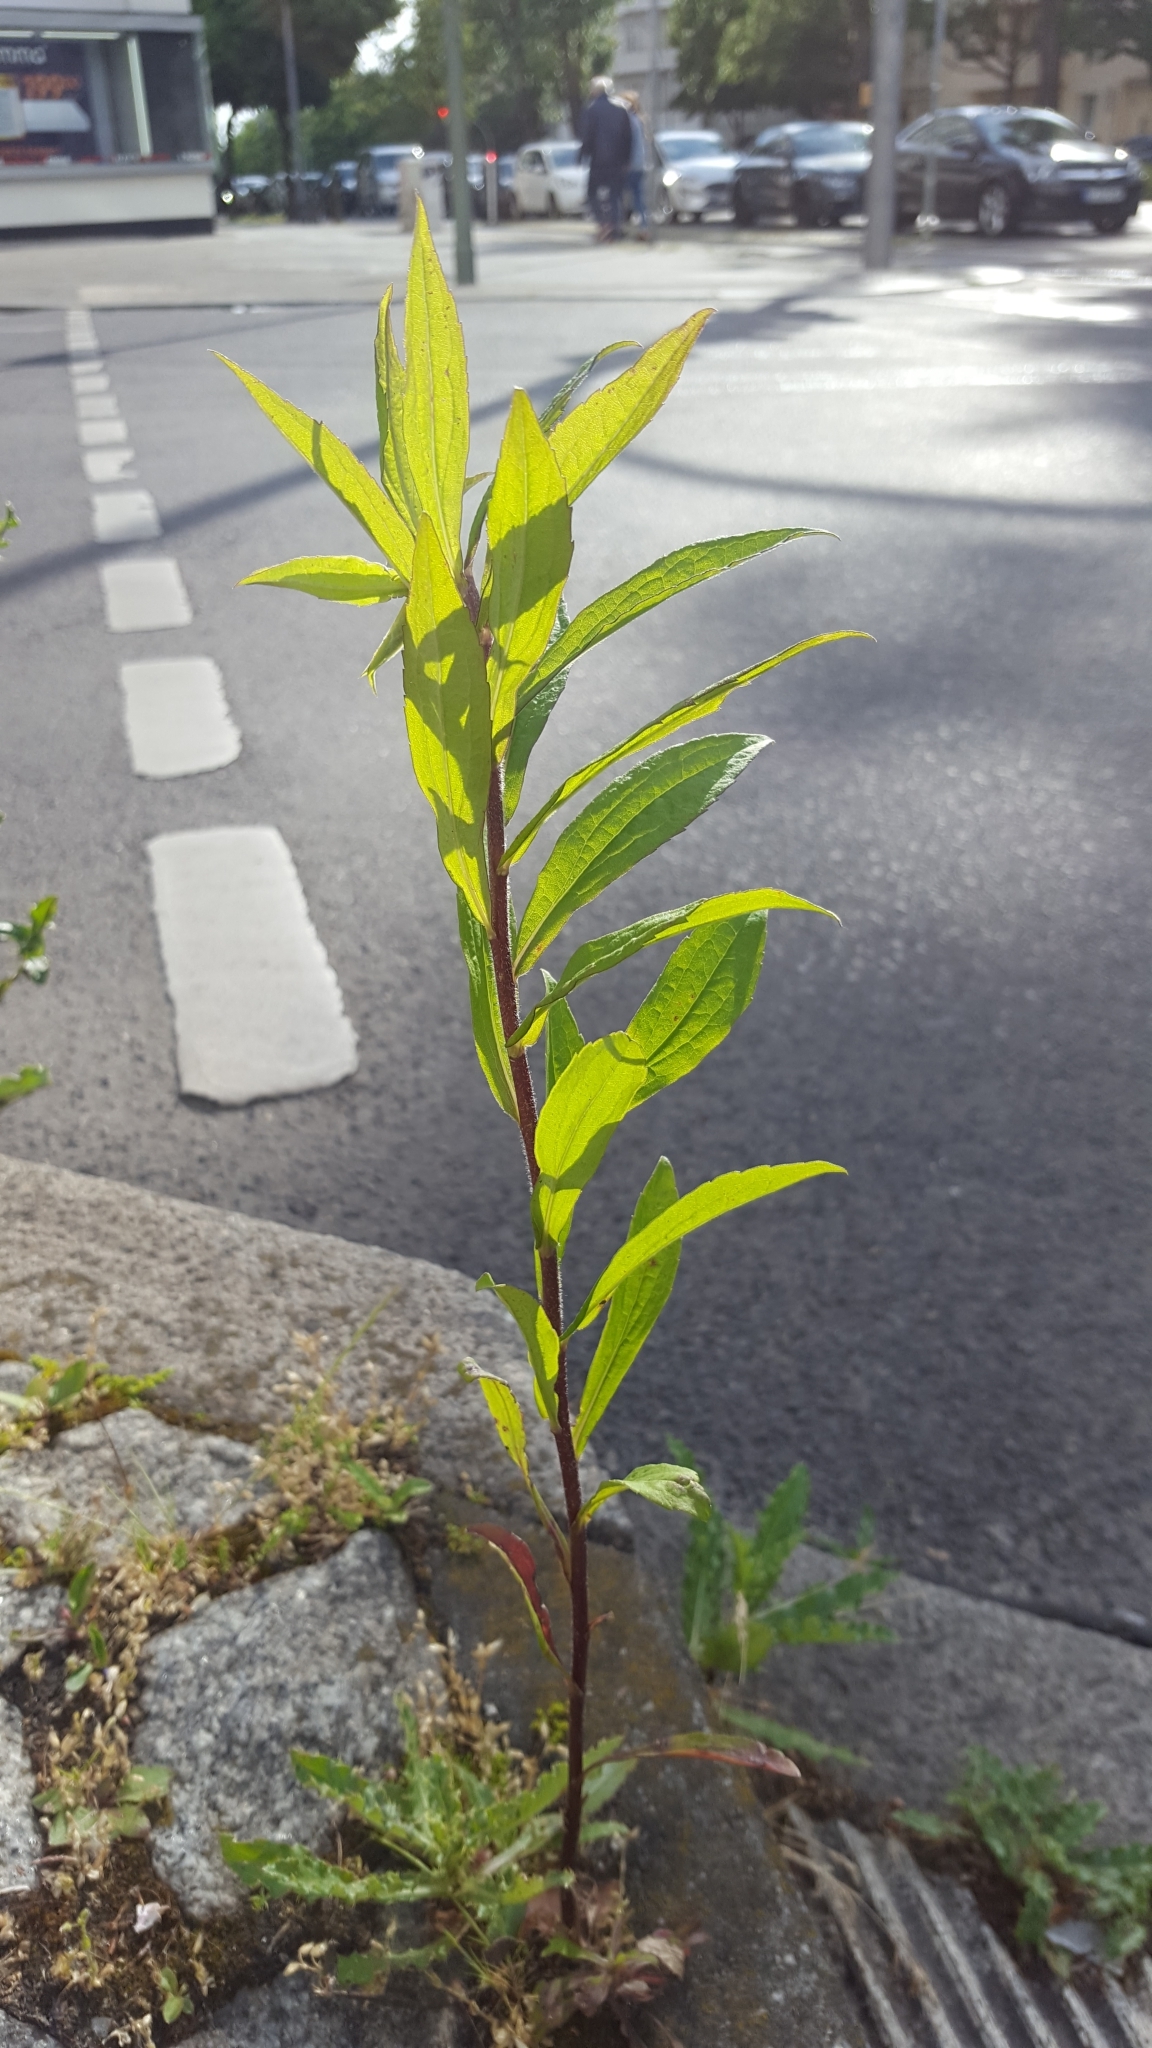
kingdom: Plantae
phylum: Tracheophyta
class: Magnoliopsida
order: Asterales
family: Asteraceae
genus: Solidago
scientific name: Solidago canadensis
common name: Canada goldenrod
